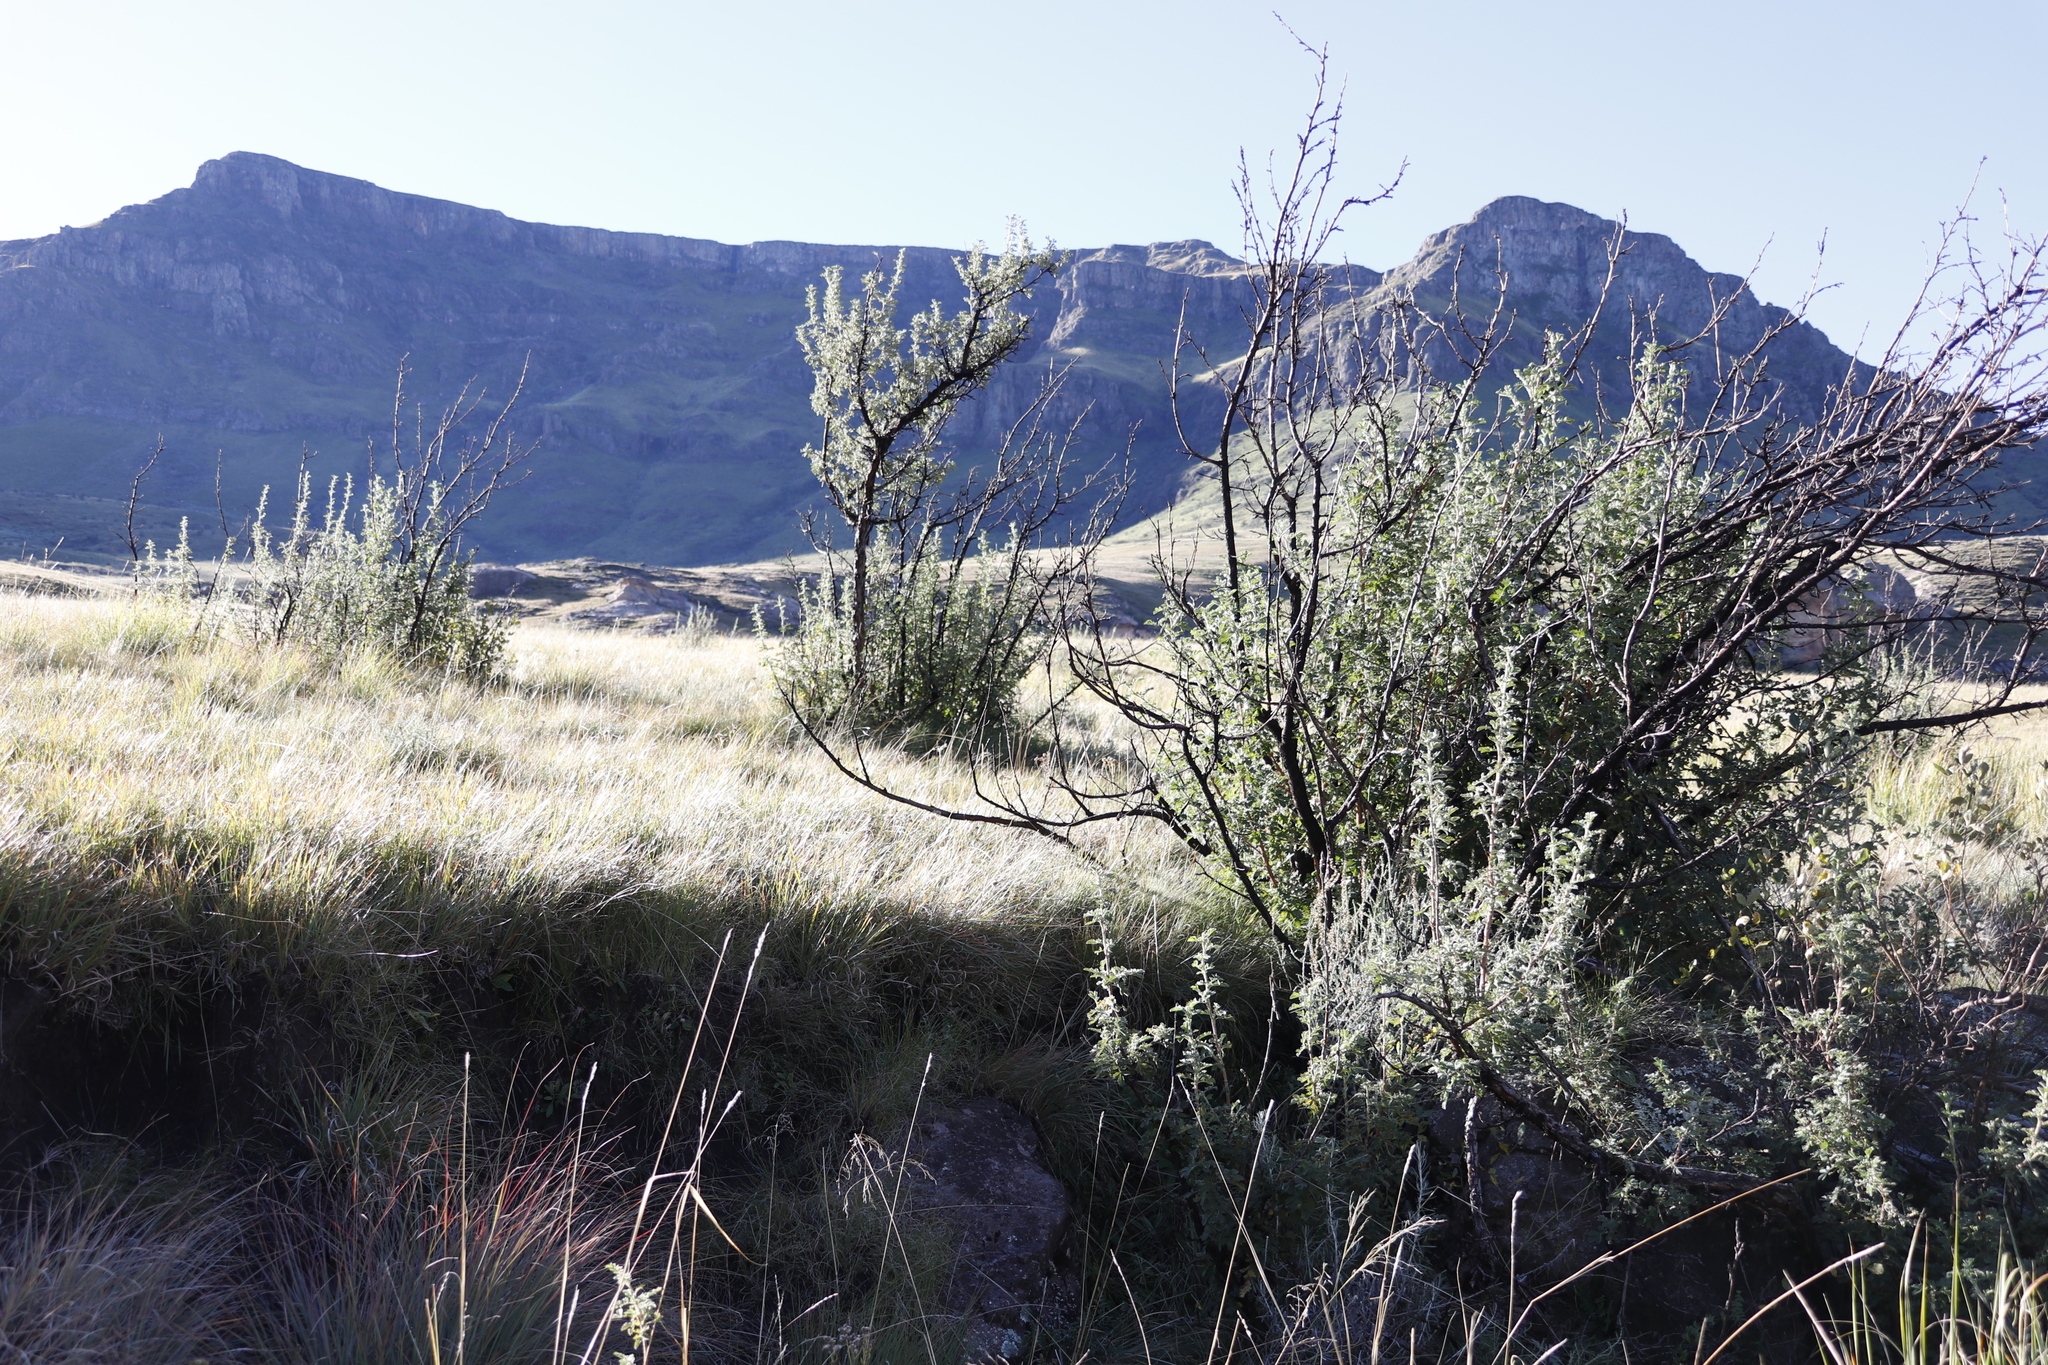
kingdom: Plantae
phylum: Tracheophyta
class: Magnoliopsida
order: Rosales
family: Rosaceae
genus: Leucosidea
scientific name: Leucosidea sericea
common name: Oldwood
